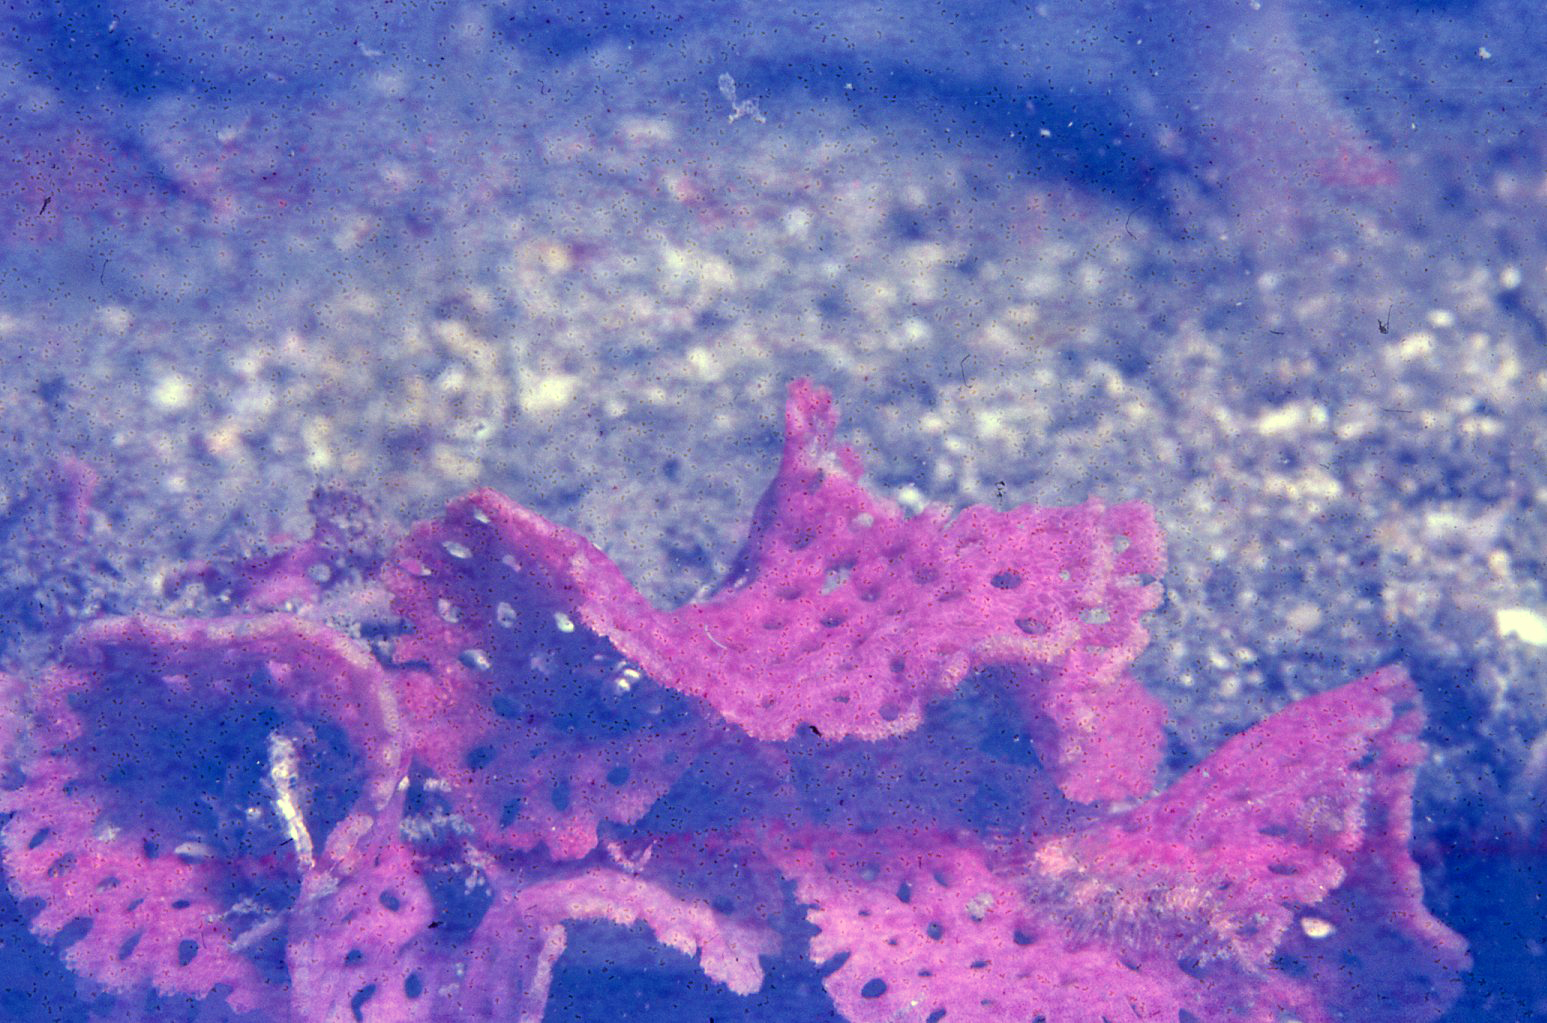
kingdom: Animalia
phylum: Bryozoa
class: Gymnolaemata
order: Cheilostomatida
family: Phidoloporidae
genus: Iodictyum
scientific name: Iodictyum phoeniceum
